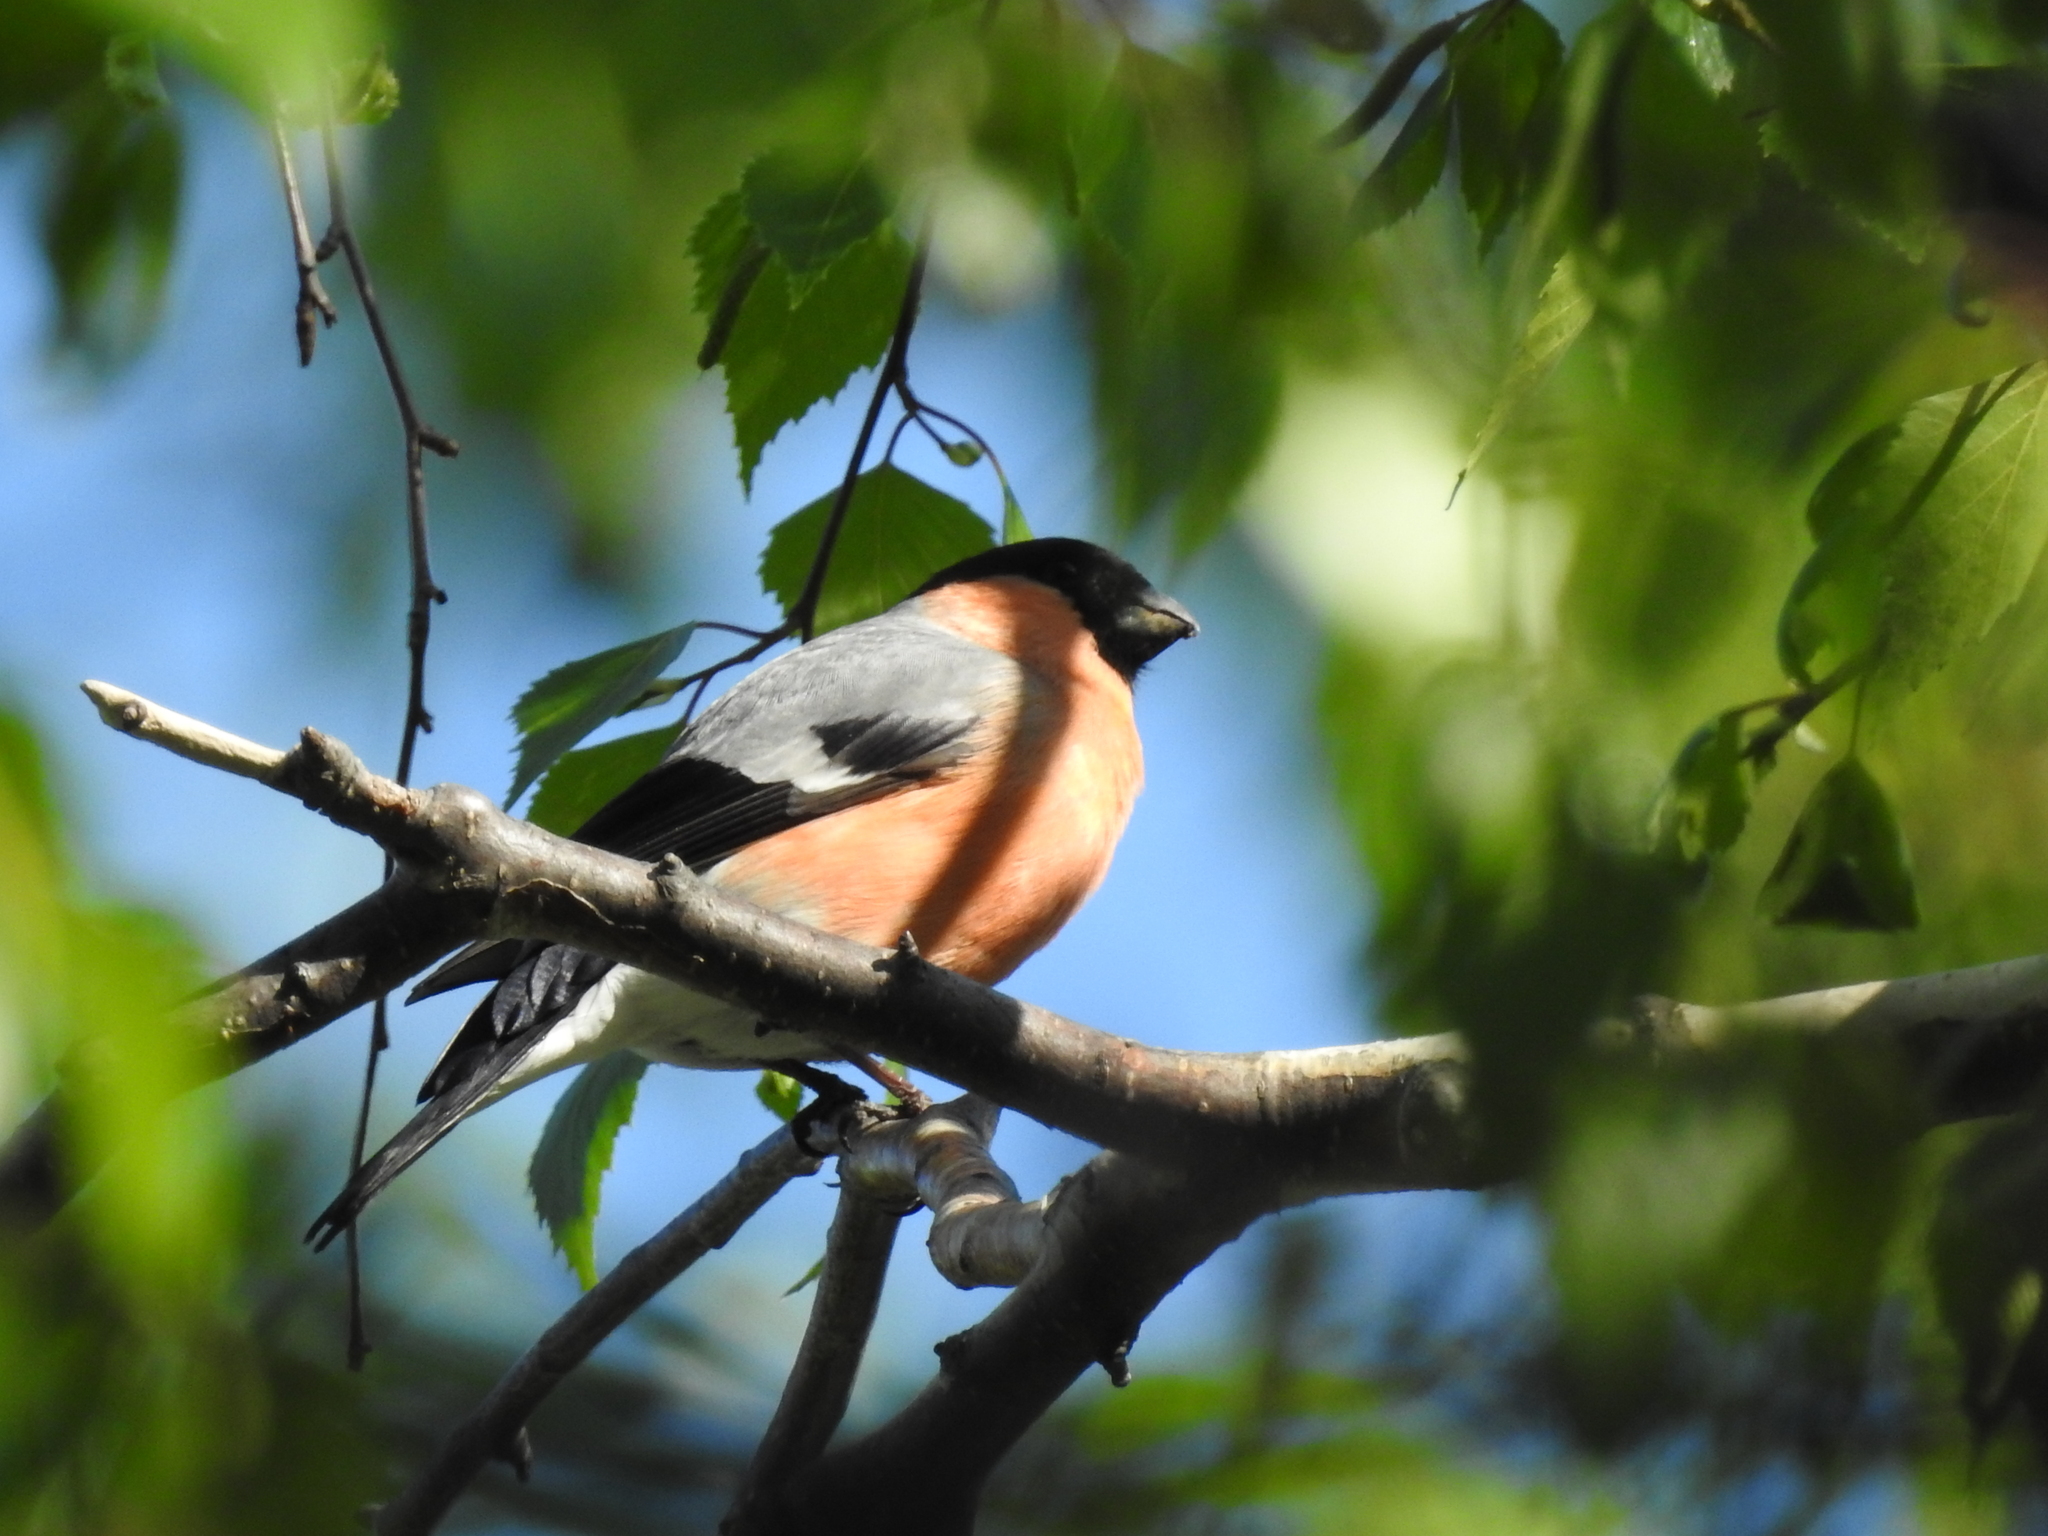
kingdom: Animalia
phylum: Chordata
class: Aves
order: Passeriformes
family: Fringillidae
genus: Pyrrhula
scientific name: Pyrrhula pyrrhula
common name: Eurasian bullfinch
